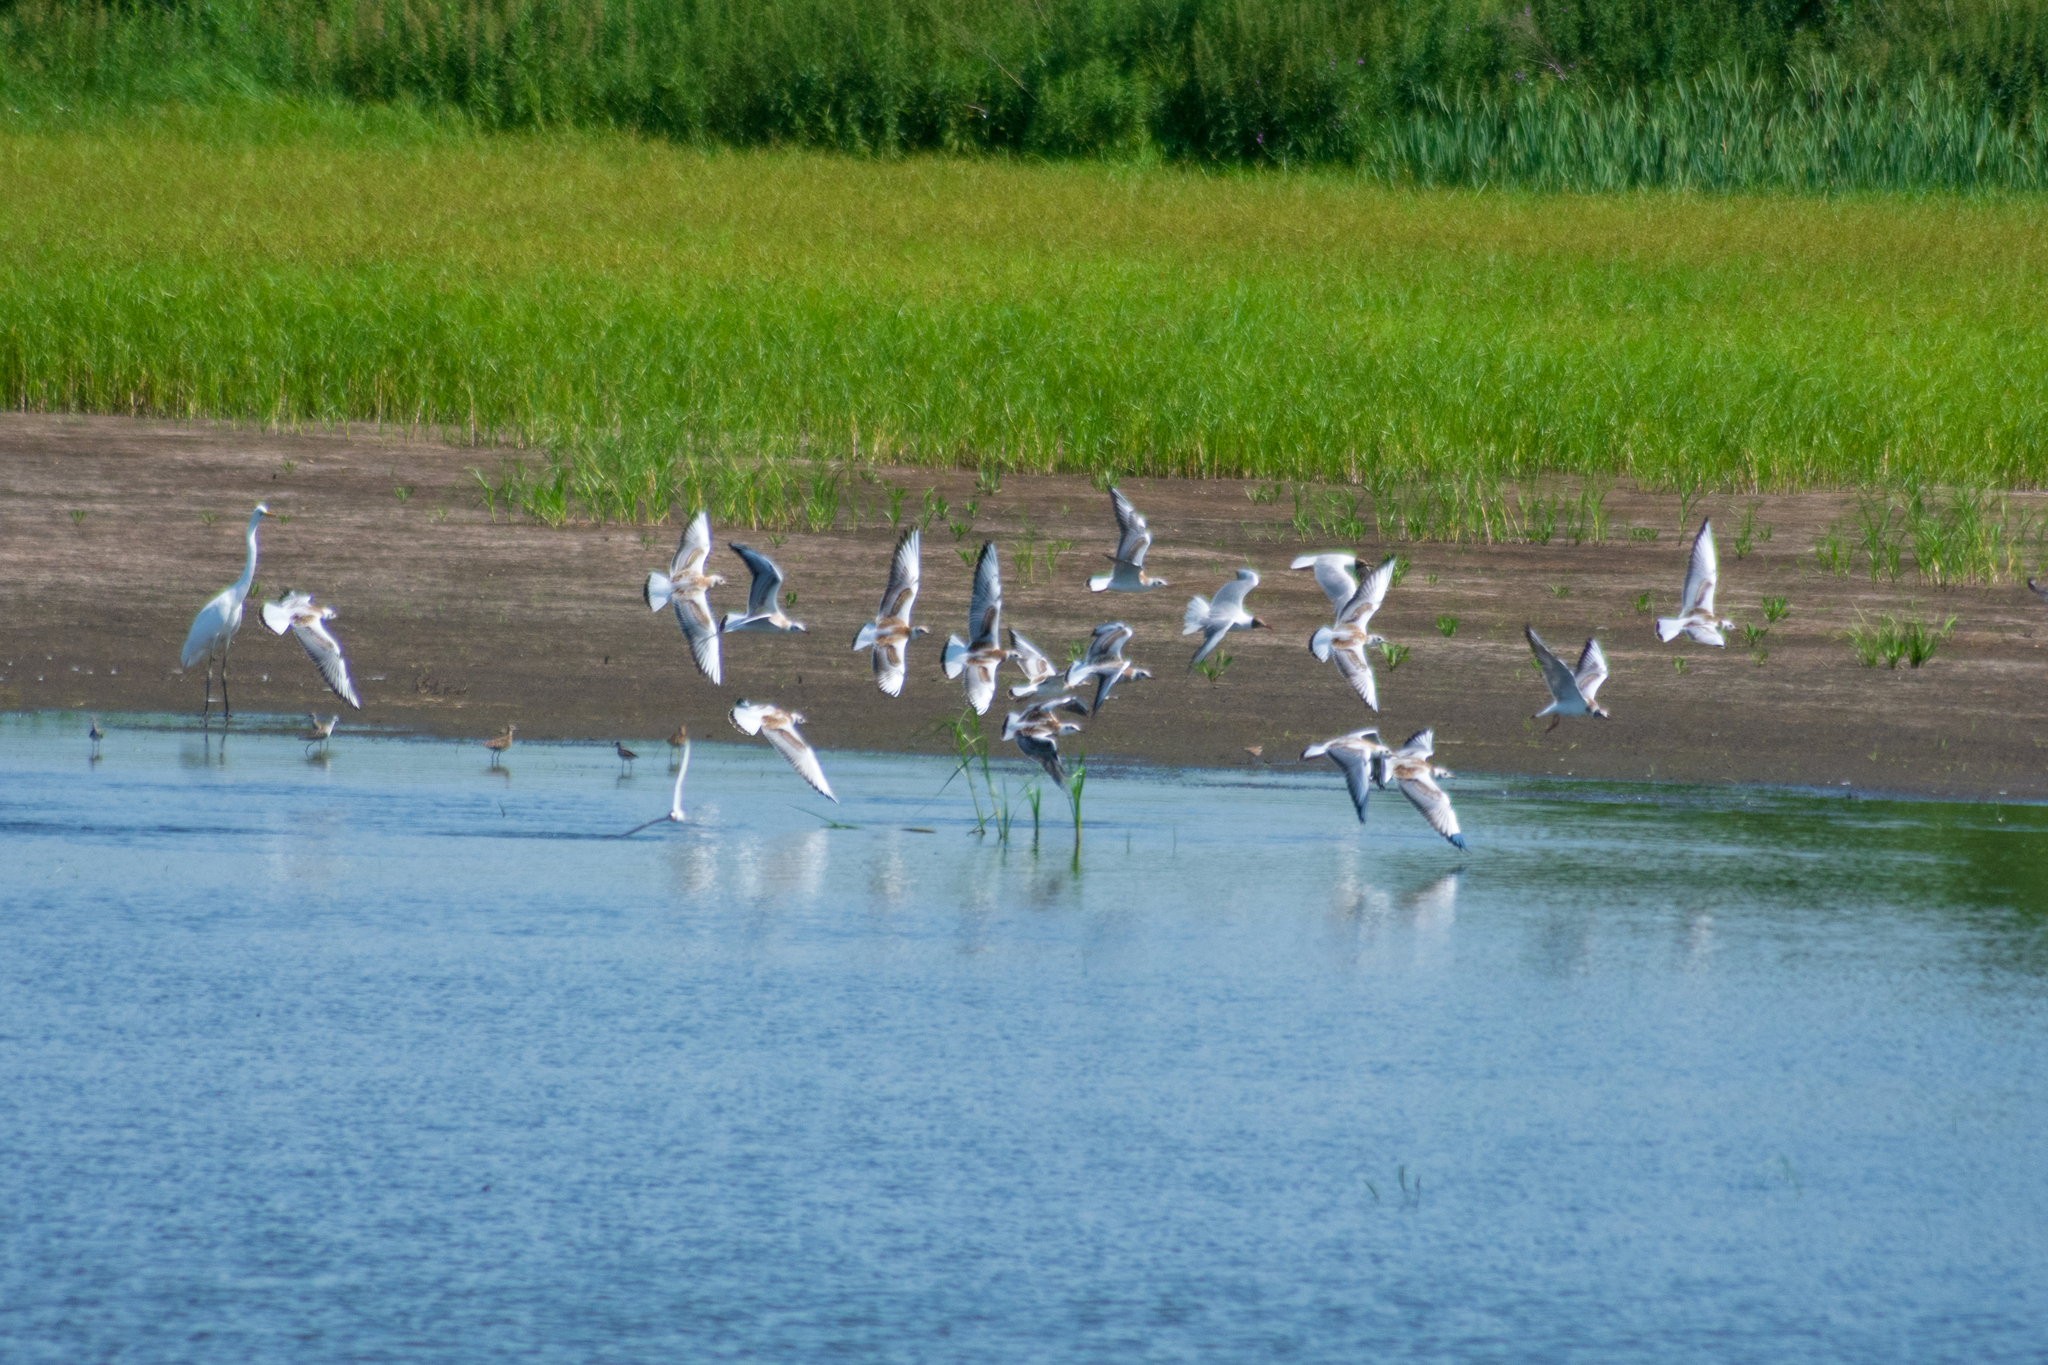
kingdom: Animalia
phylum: Chordata
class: Aves
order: Charadriiformes
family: Laridae
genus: Chroicocephalus
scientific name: Chroicocephalus ridibundus
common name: Black-headed gull
